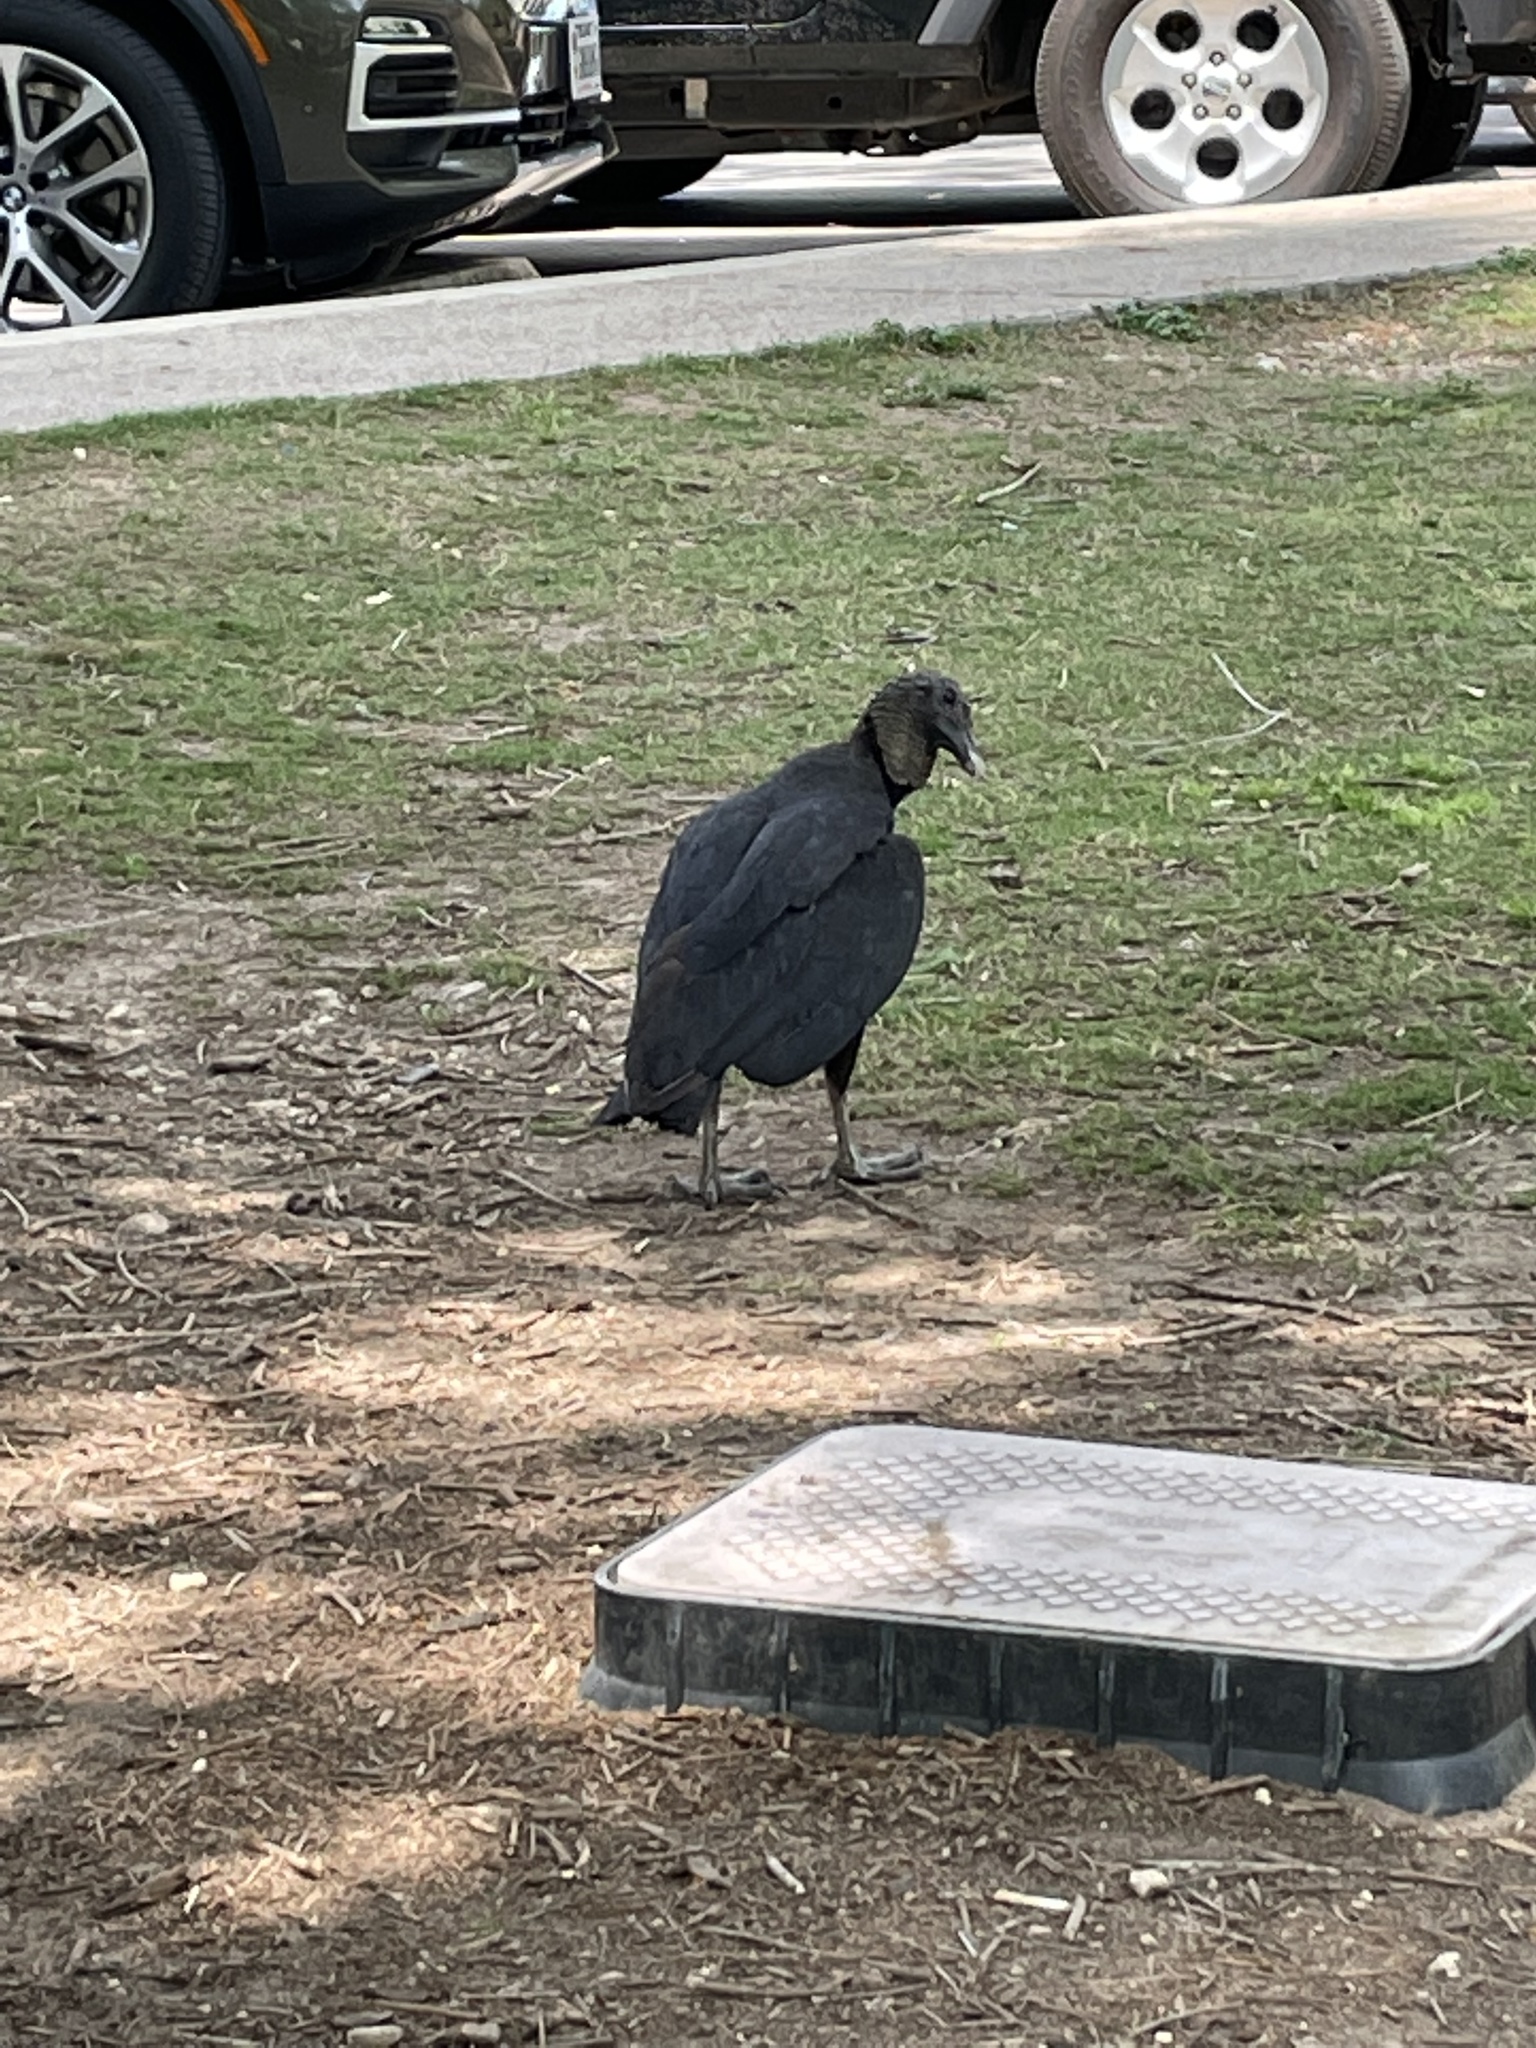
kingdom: Animalia
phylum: Chordata
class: Aves
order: Accipitriformes
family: Cathartidae
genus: Coragyps
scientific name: Coragyps atratus
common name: Black vulture
